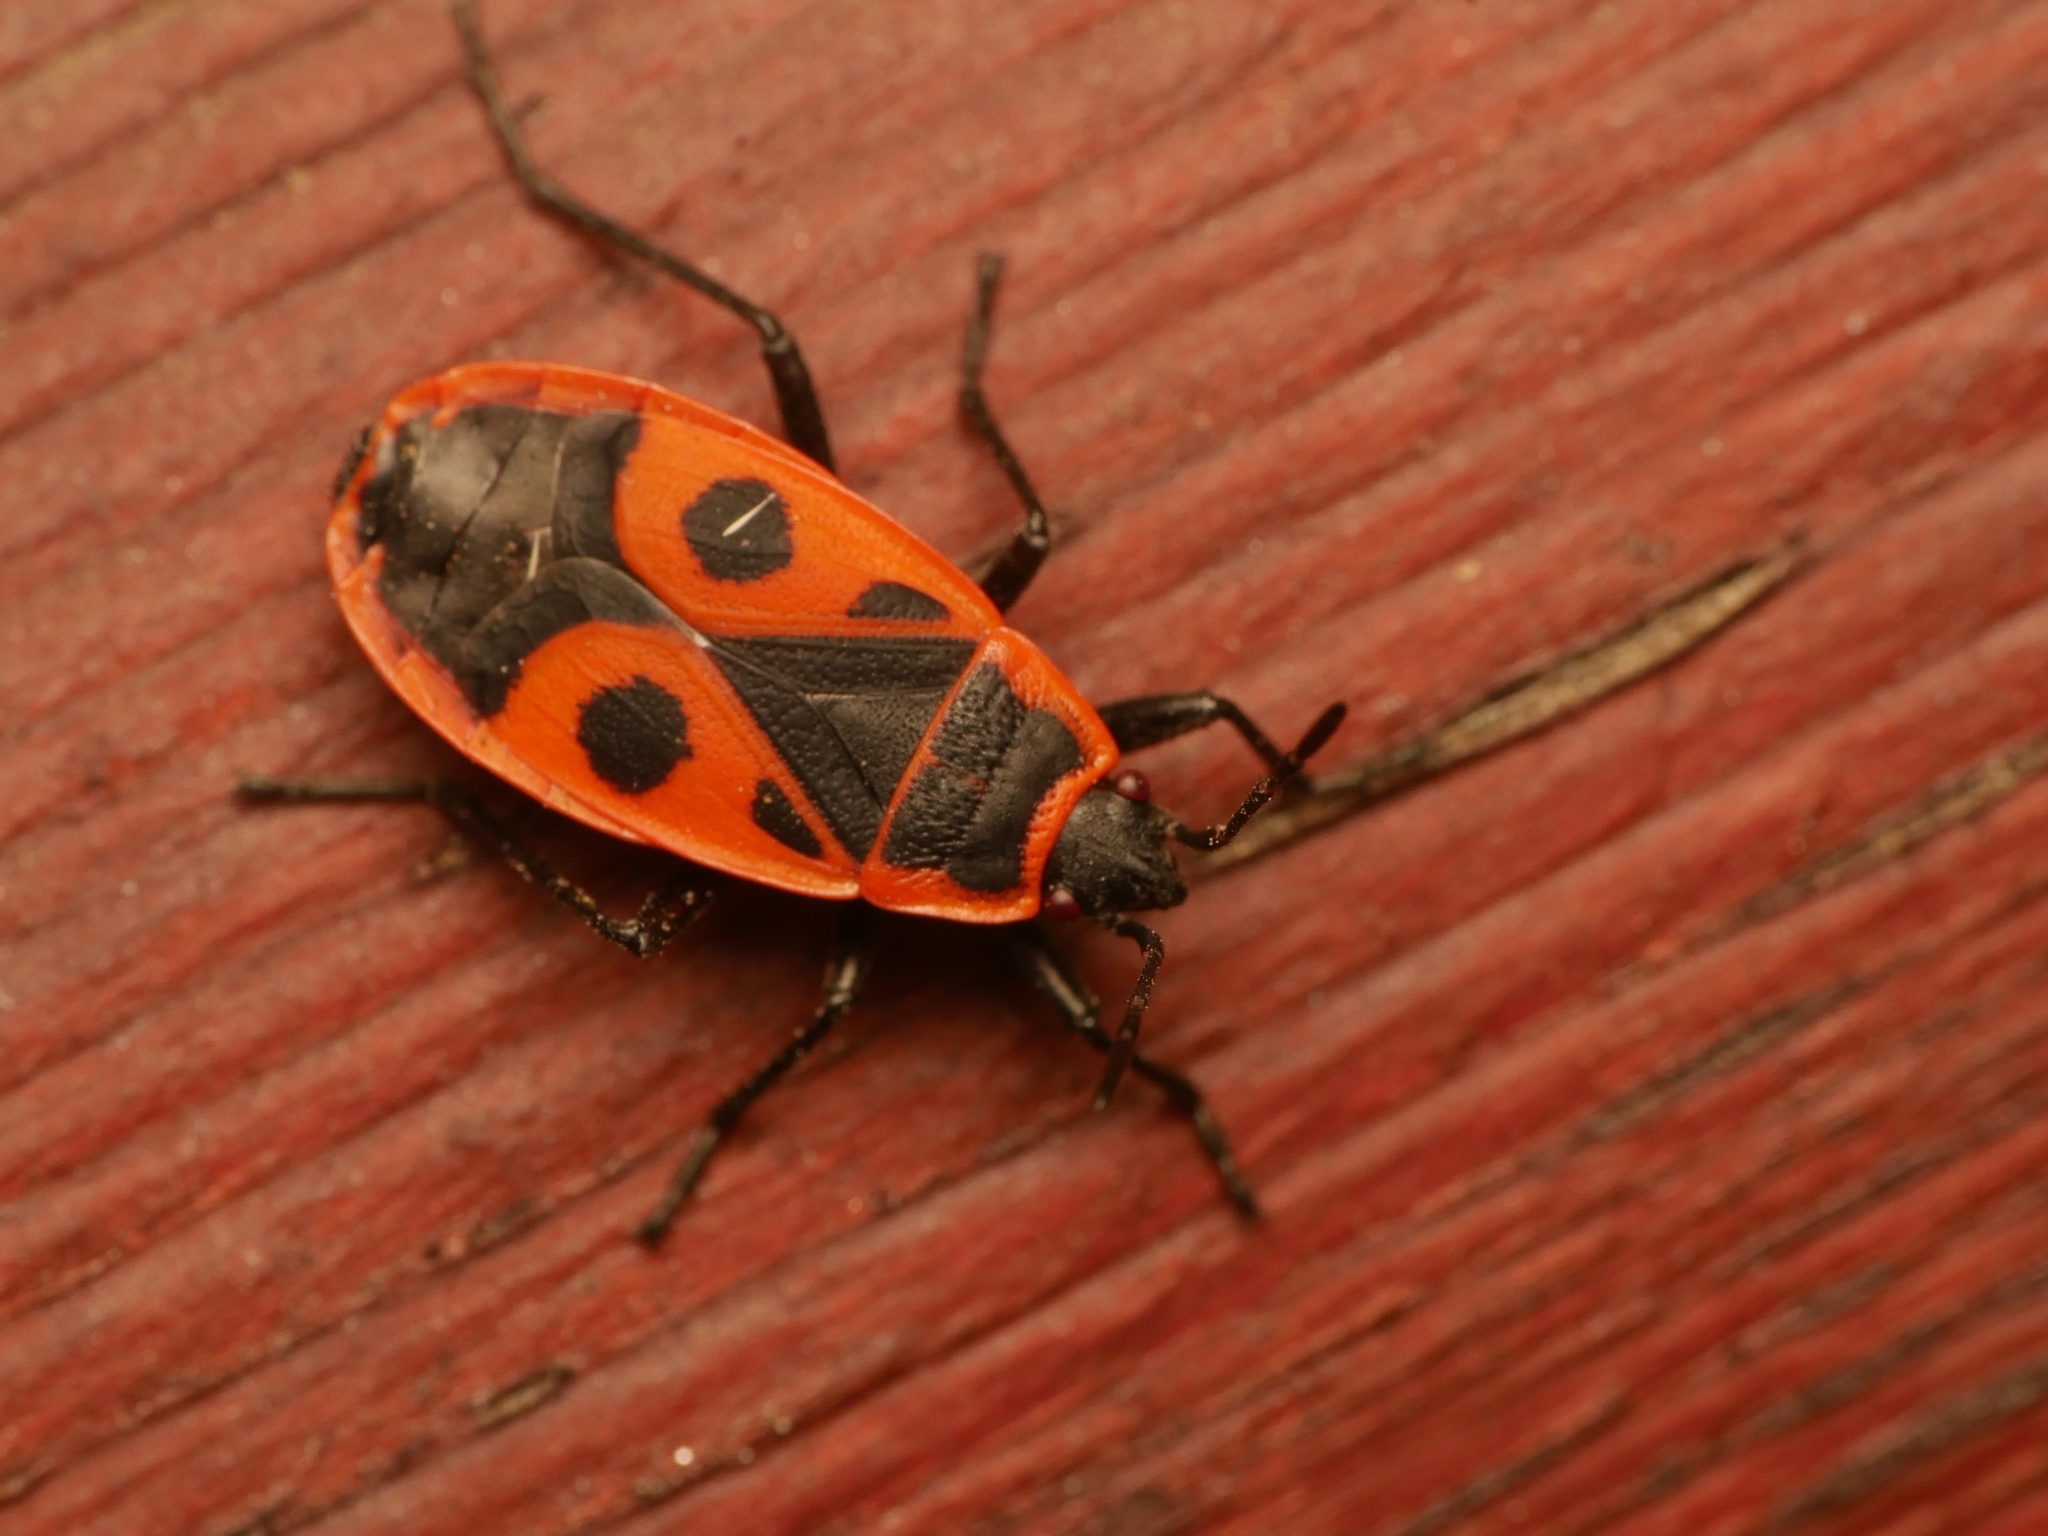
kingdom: Animalia
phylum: Arthropoda
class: Insecta
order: Hemiptera
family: Pyrrhocoridae
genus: Pyrrhocoris
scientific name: Pyrrhocoris apterus
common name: Firebug
